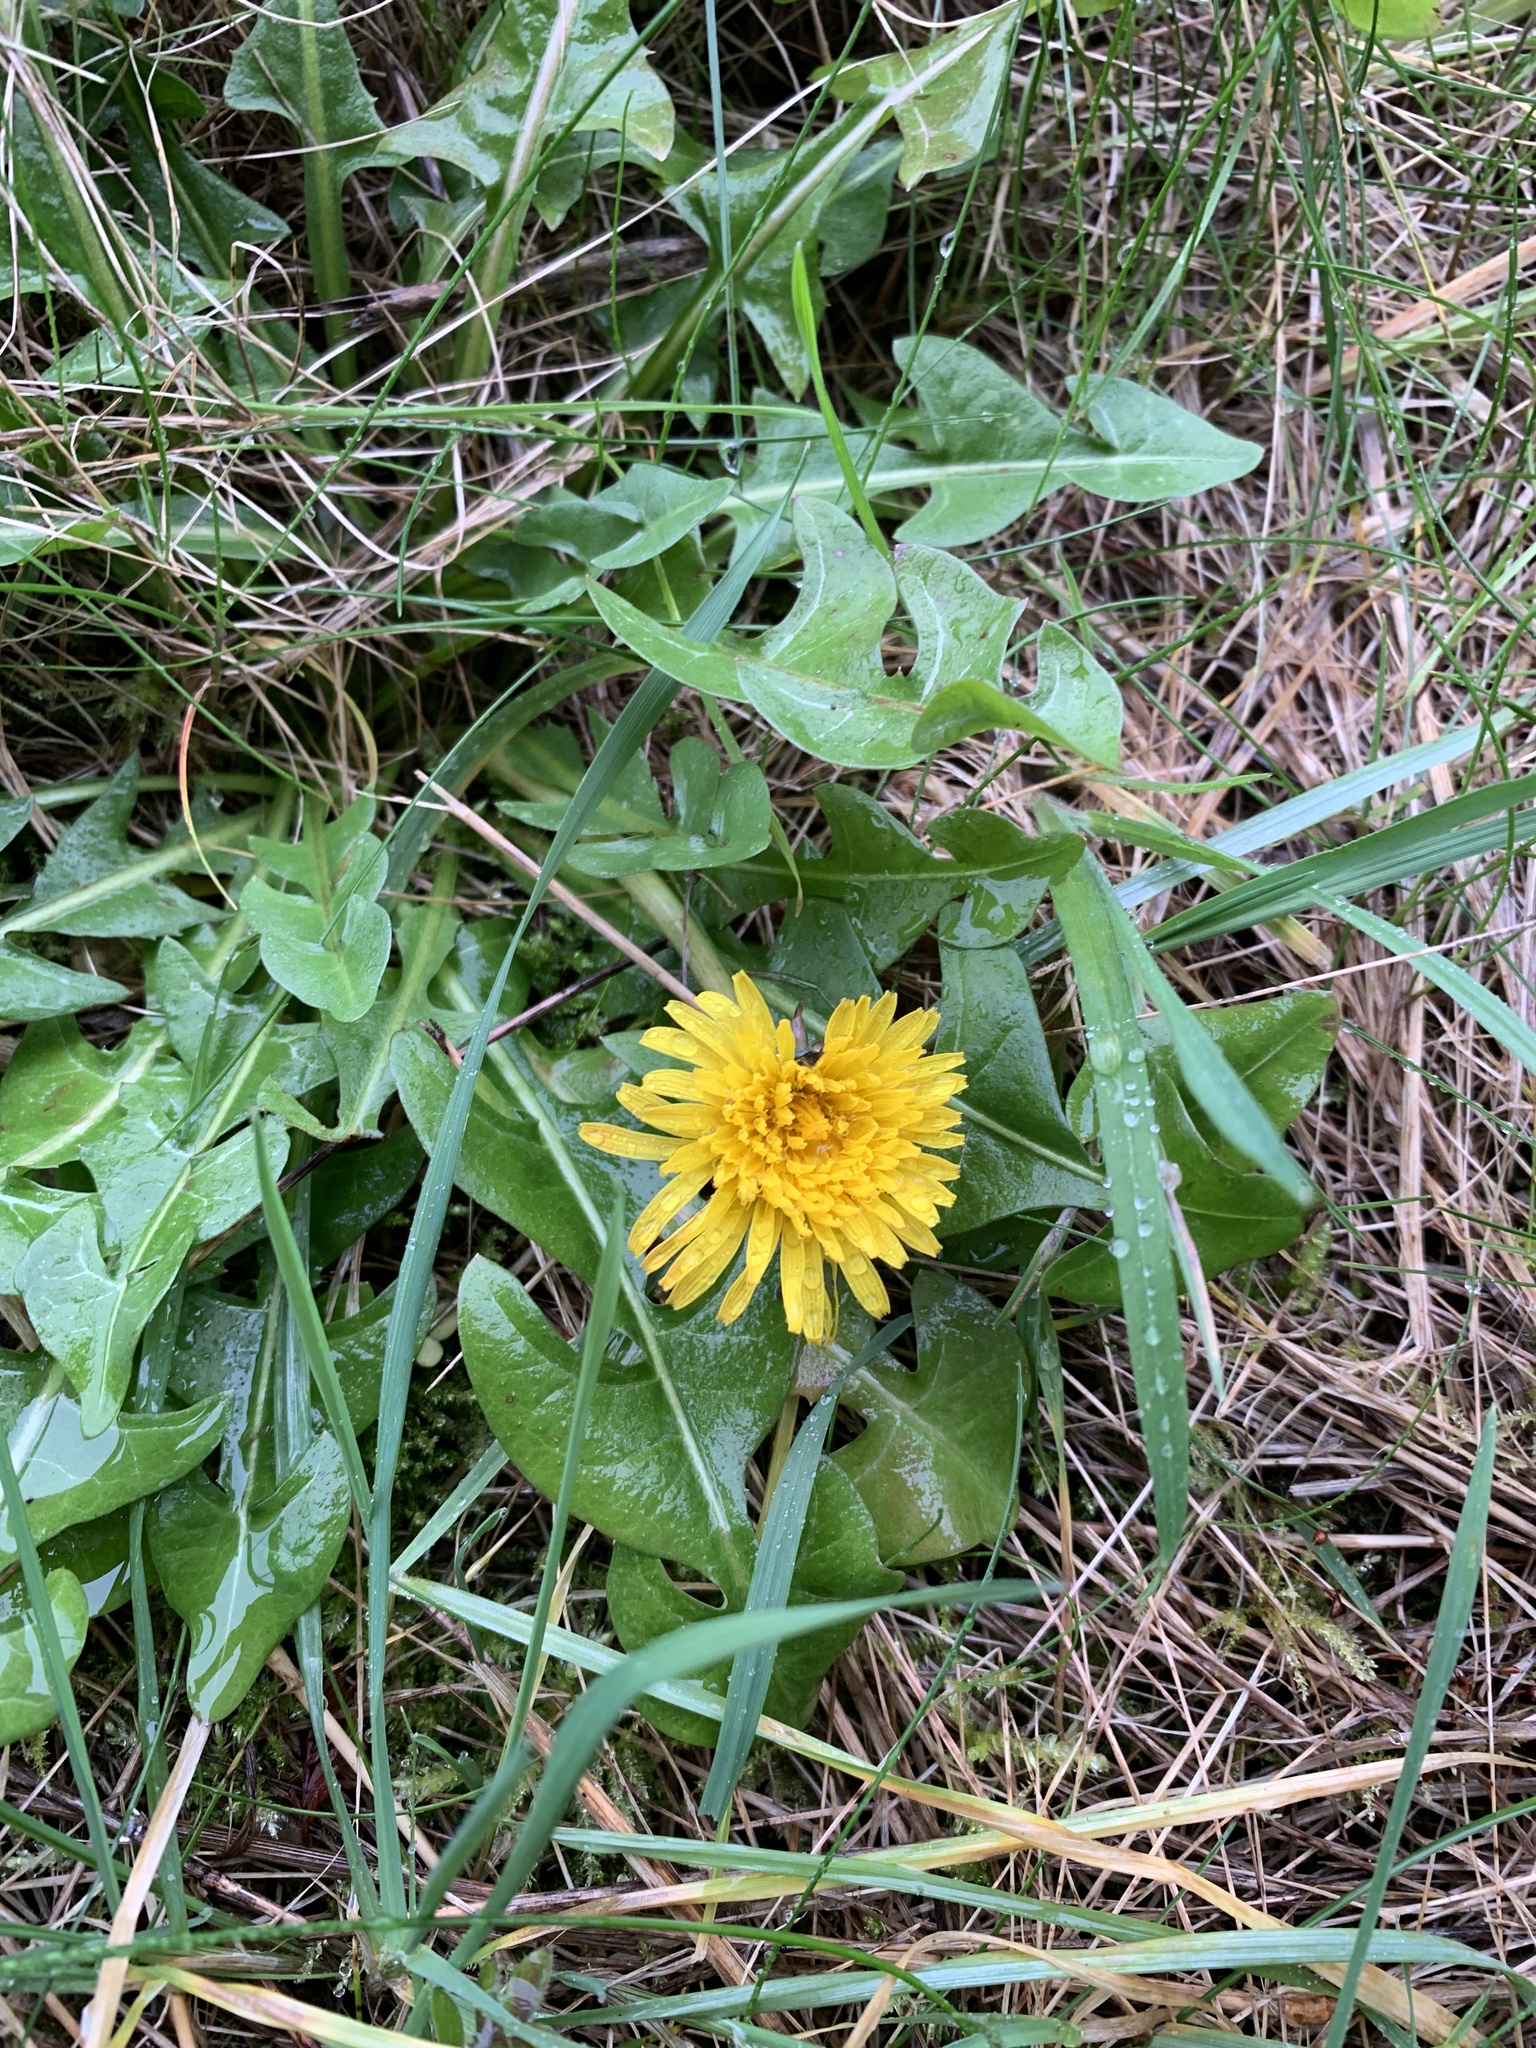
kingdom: Plantae
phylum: Tracheophyta
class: Magnoliopsida
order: Asterales
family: Asteraceae
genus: Taraxacum
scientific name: Taraxacum officinale
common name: Common dandelion
